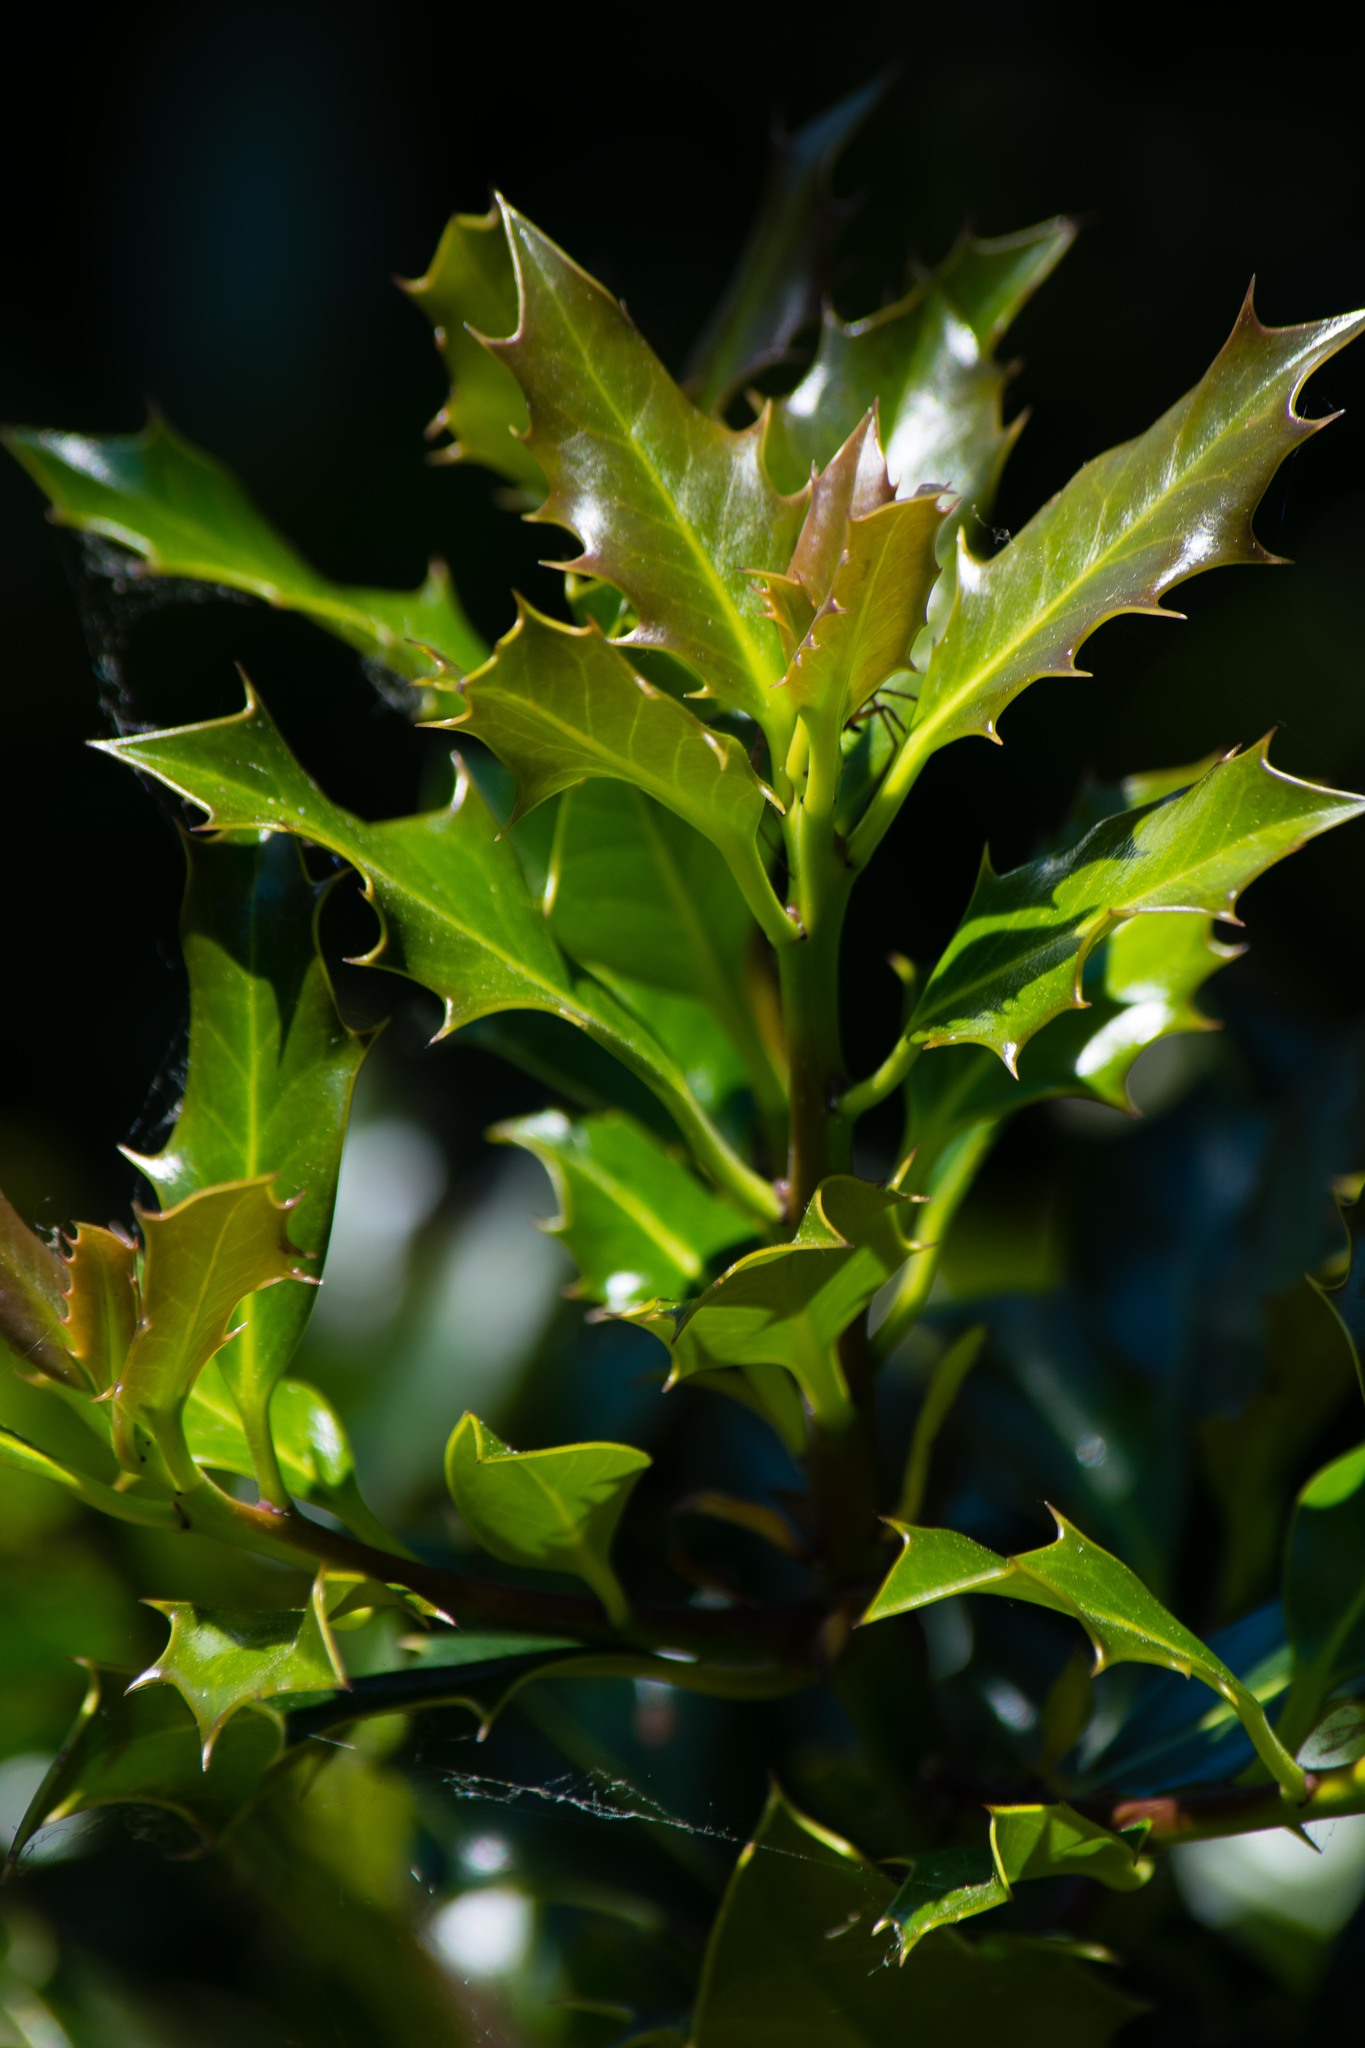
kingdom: Plantae
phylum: Tracheophyta
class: Magnoliopsida
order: Aquifoliales
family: Aquifoliaceae
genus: Ilex
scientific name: Ilex aquifolium
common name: English holly
